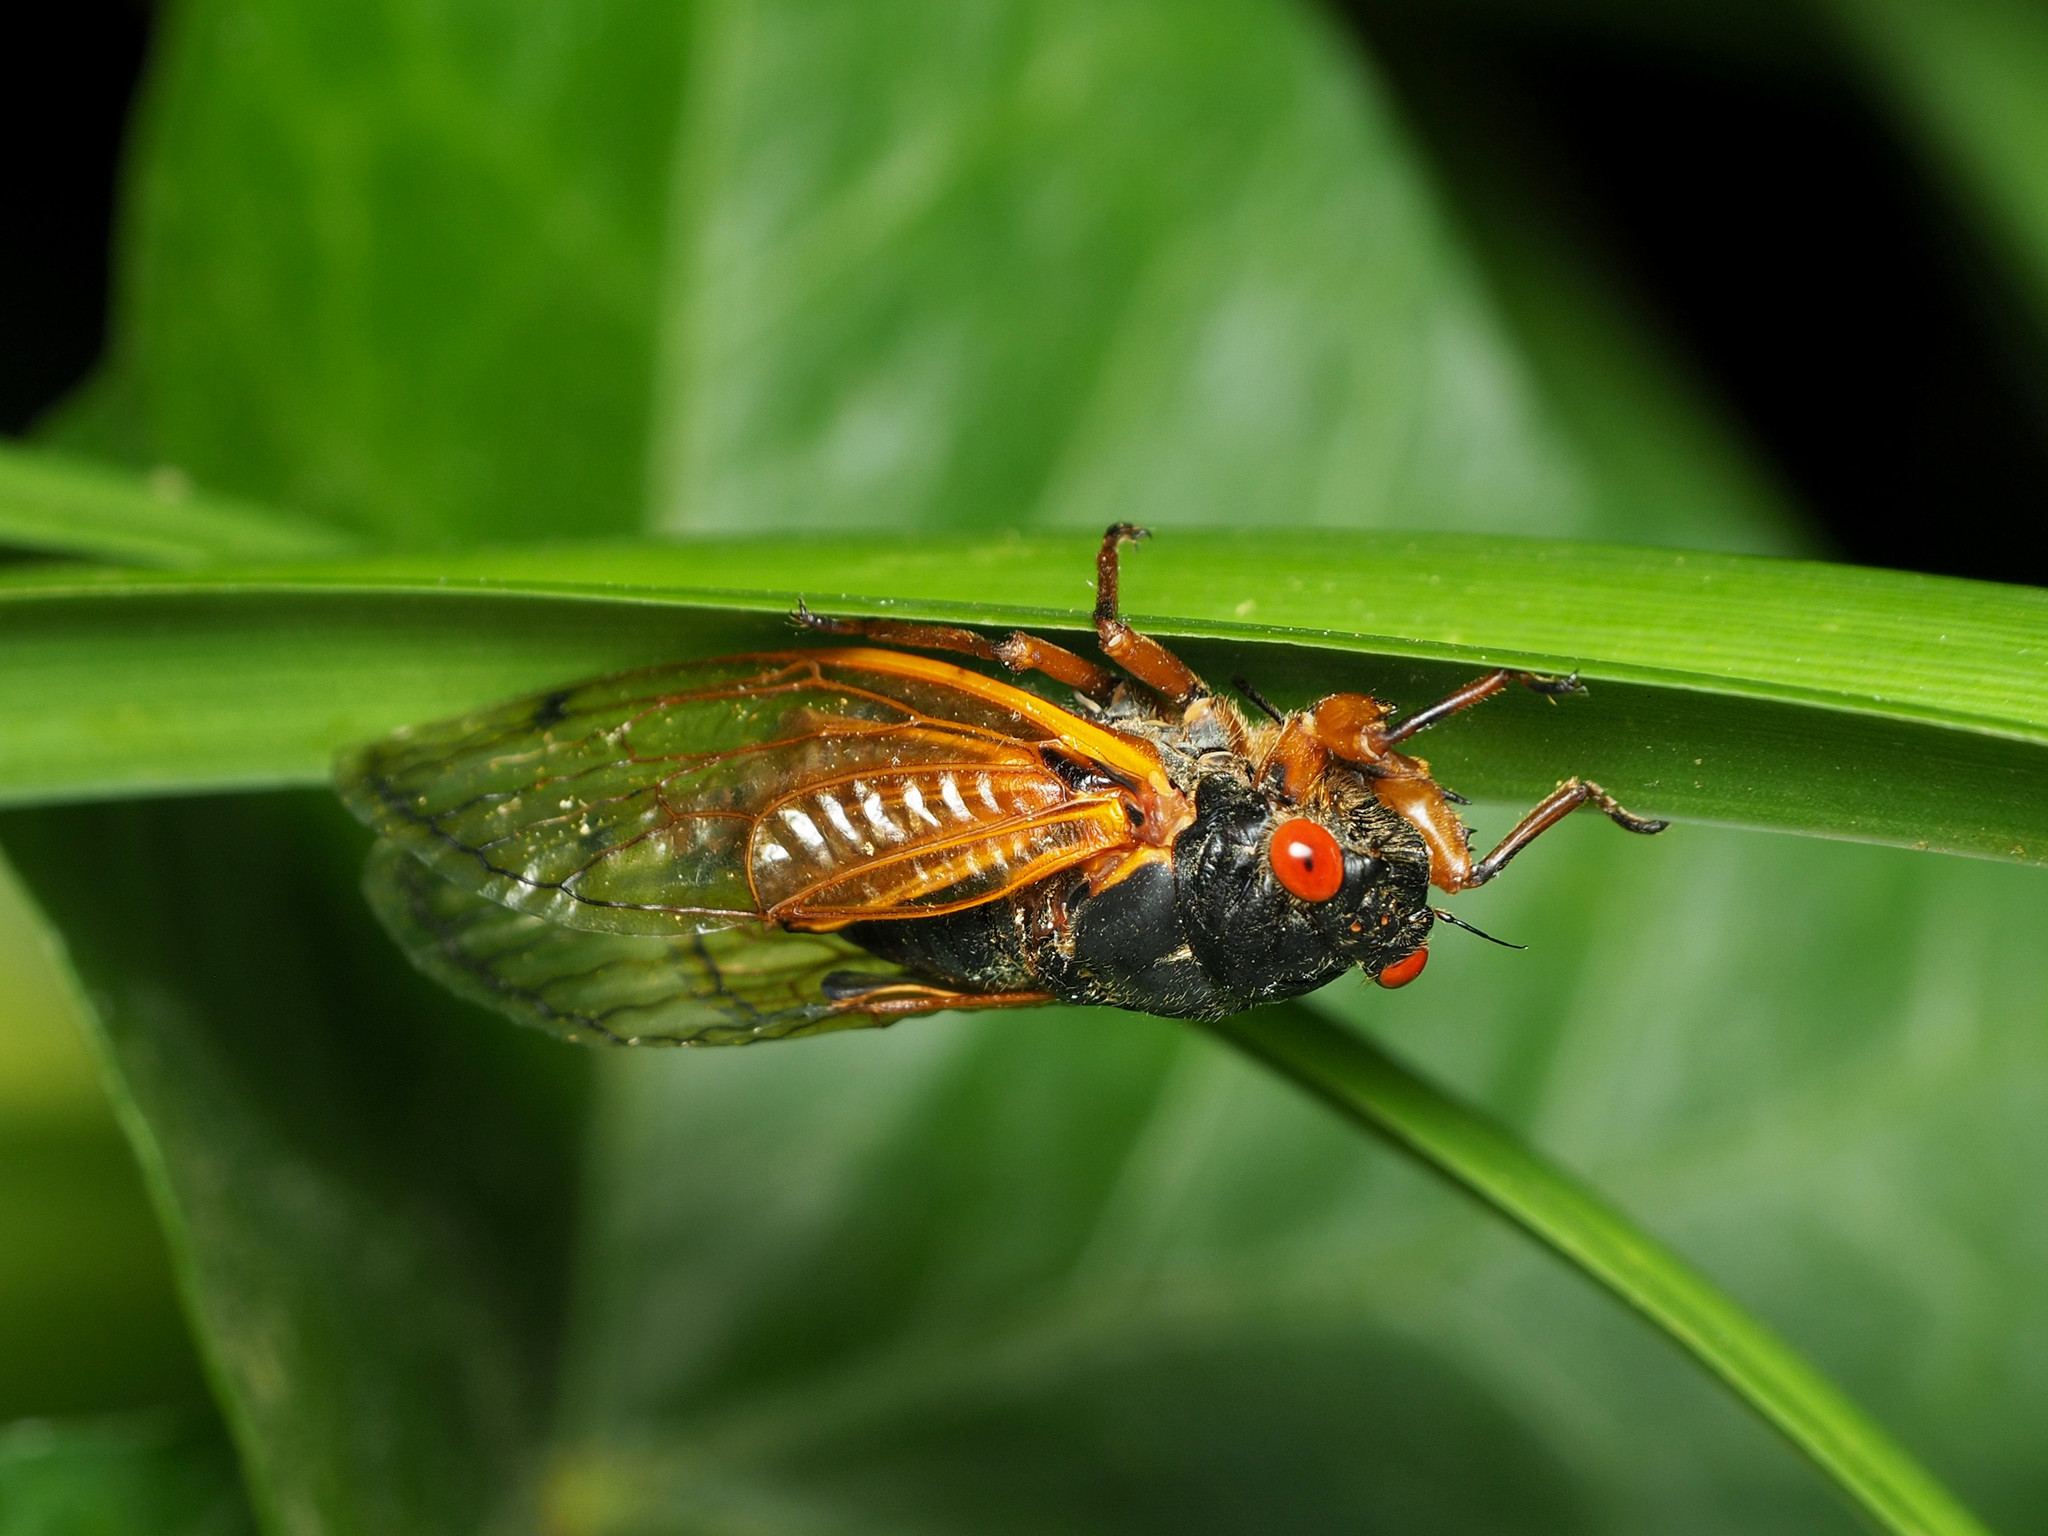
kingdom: Animalia
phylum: Arthropoda
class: Insecta
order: Hemiptera
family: Cicadidae
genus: Magicicada
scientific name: Magicicada cassini
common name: Cassin's 17-year cicada
